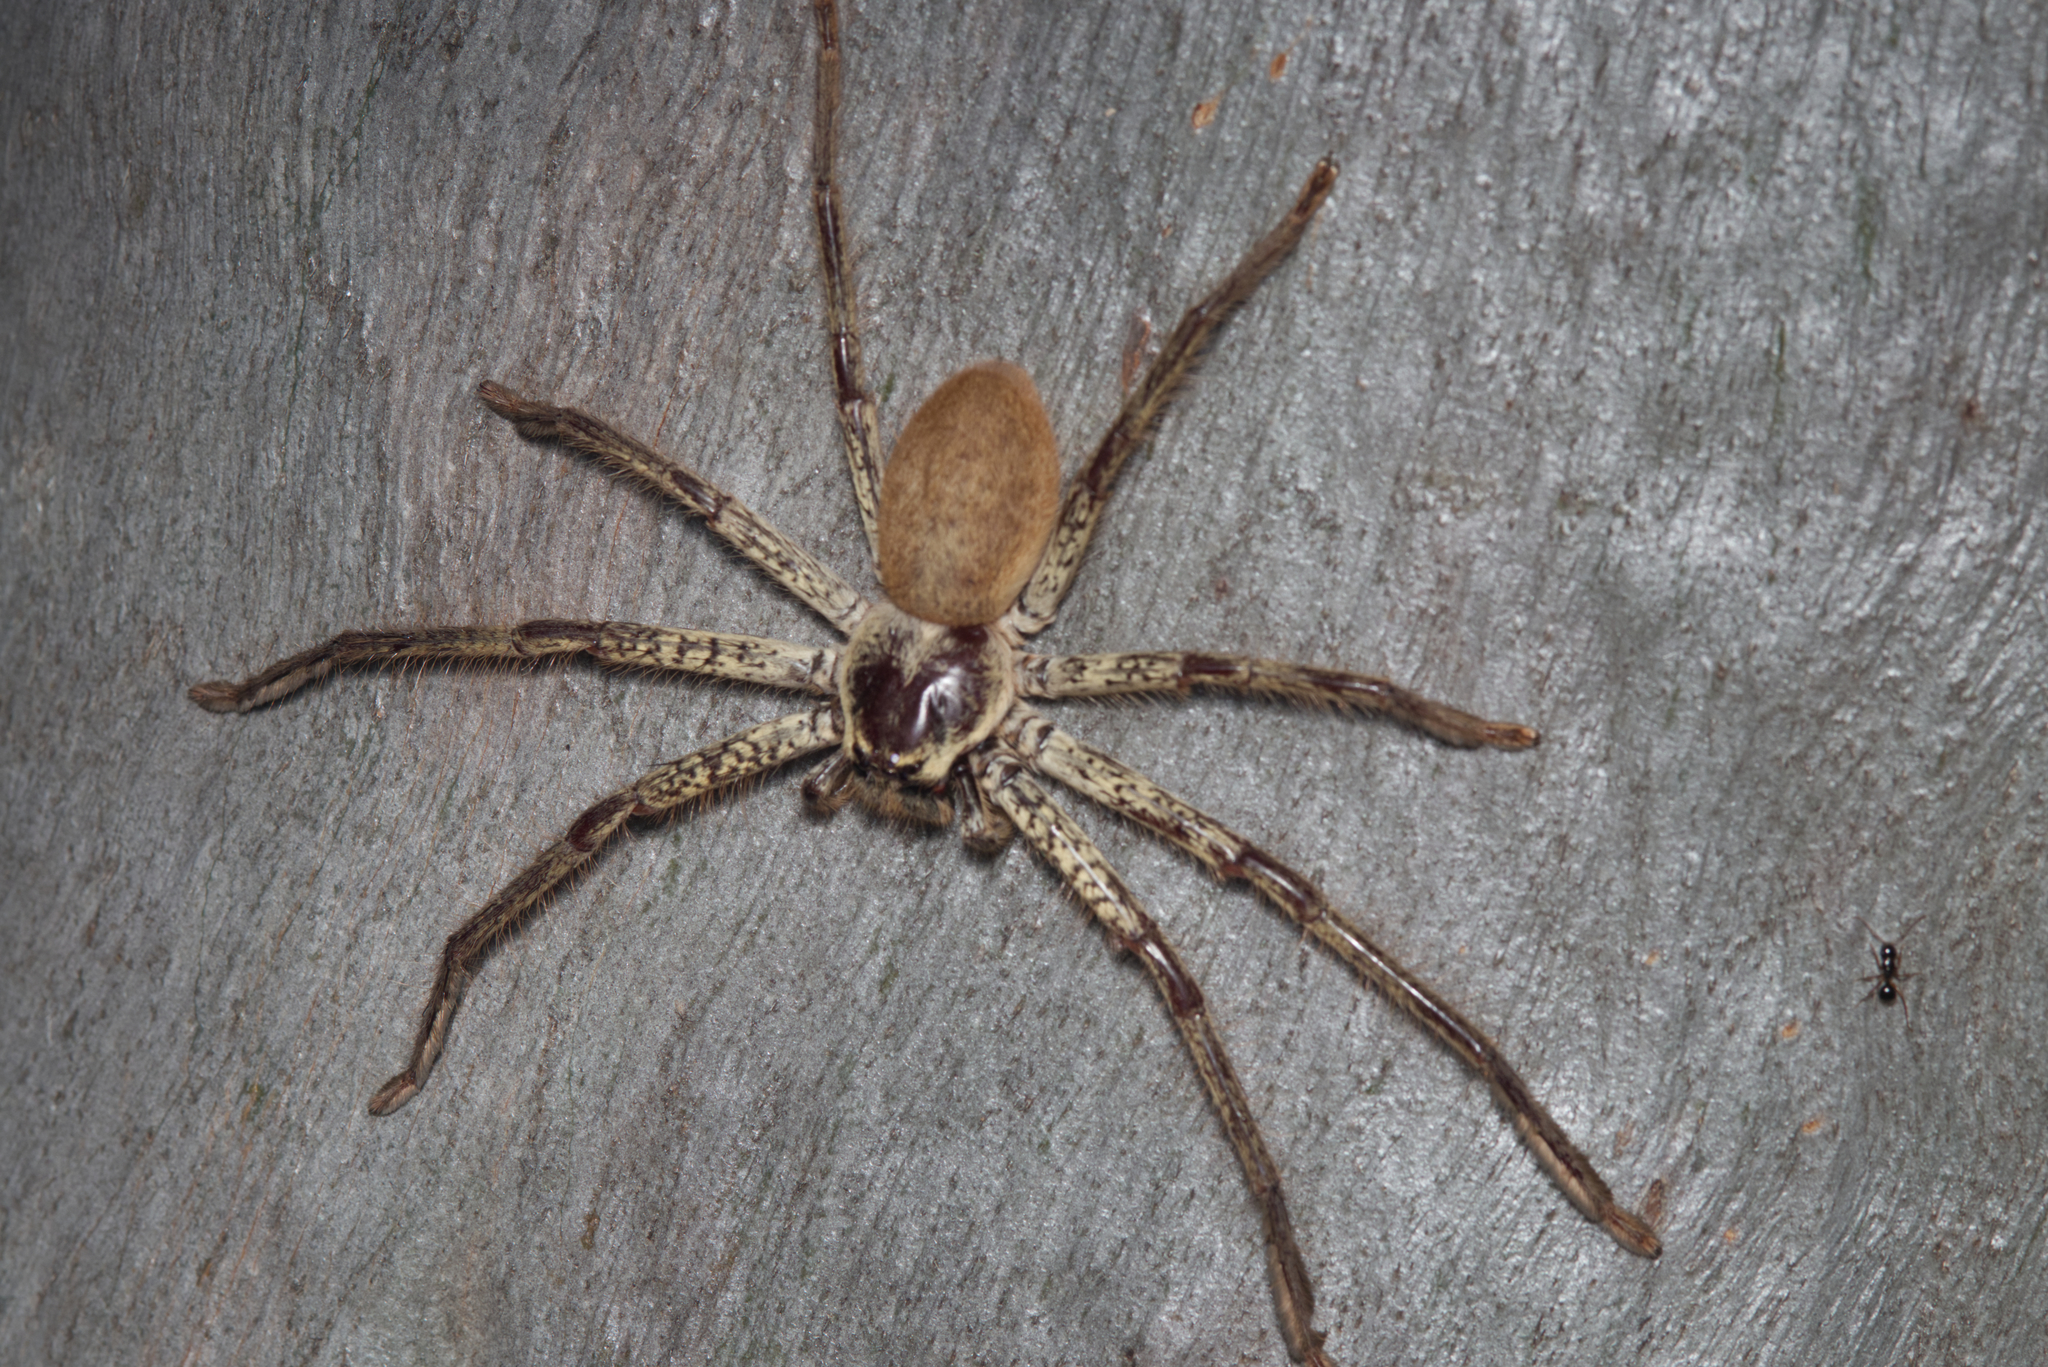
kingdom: Animalia
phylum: Arthropoda
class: Arachnida
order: Araneae
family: Sparassidae
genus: Beregama
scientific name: Beregama aurea
